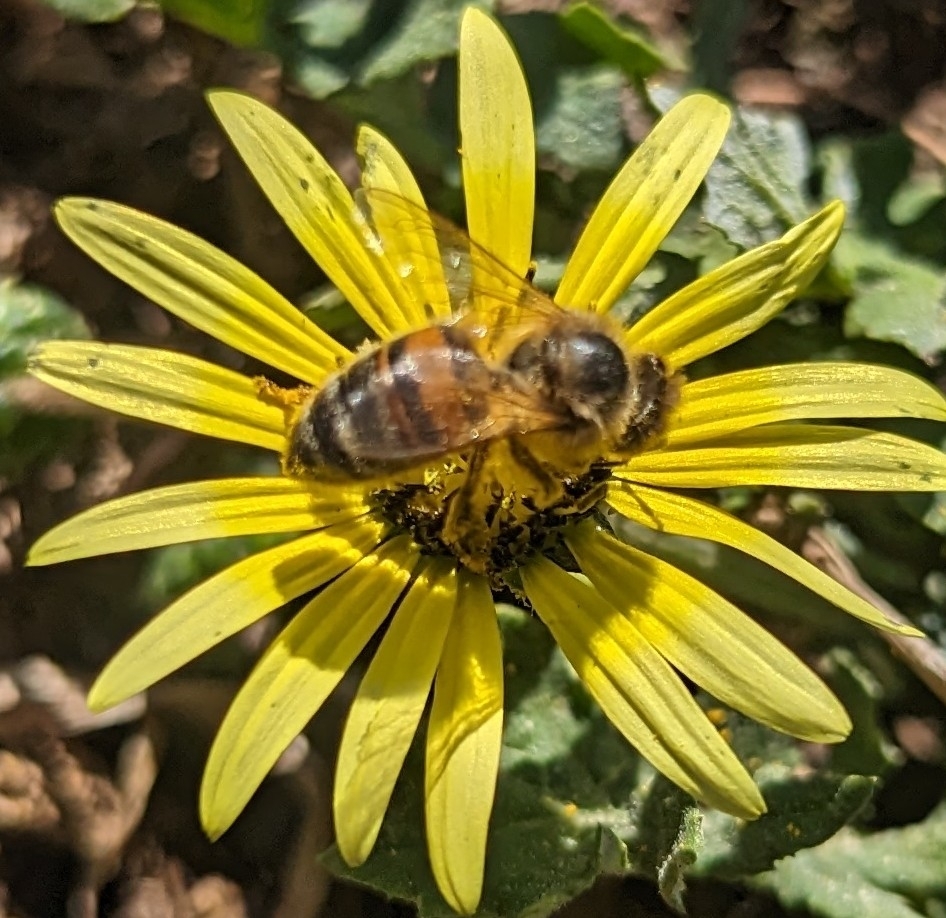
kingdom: Animalia
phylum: Arthropoda
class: Insecta
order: Hymenoptera
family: Apidae
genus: Apis
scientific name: Apis mellifera
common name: Honey bee
